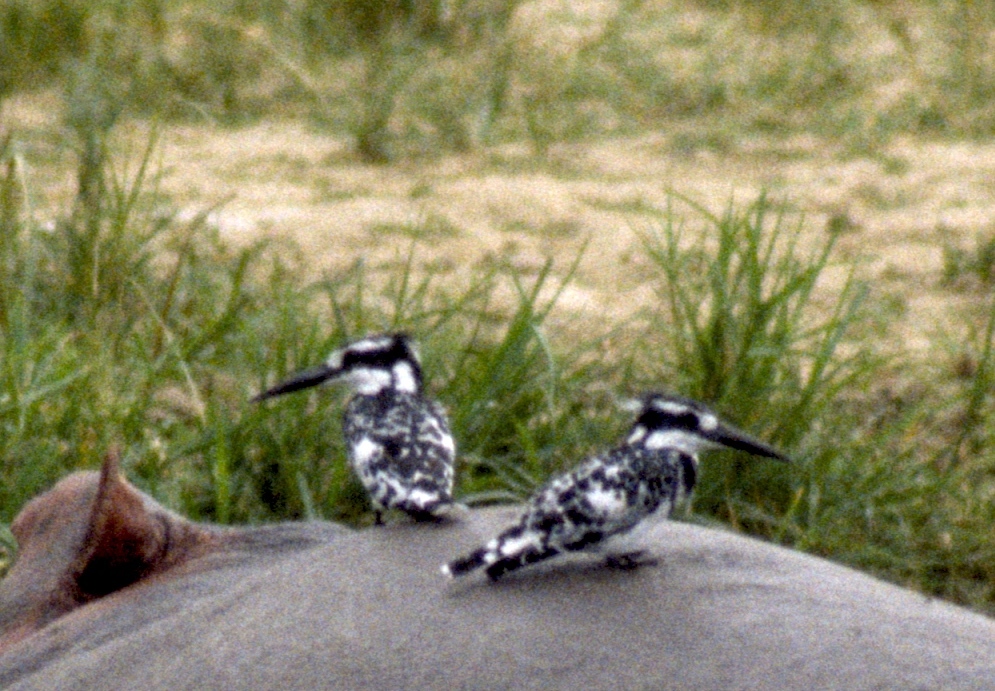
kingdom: Animalia
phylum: Chordata
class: Aves
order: Coraciiformes
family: Alcedinidae
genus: Ceryle
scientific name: Ceryle rudis
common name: Pied kingfisher
